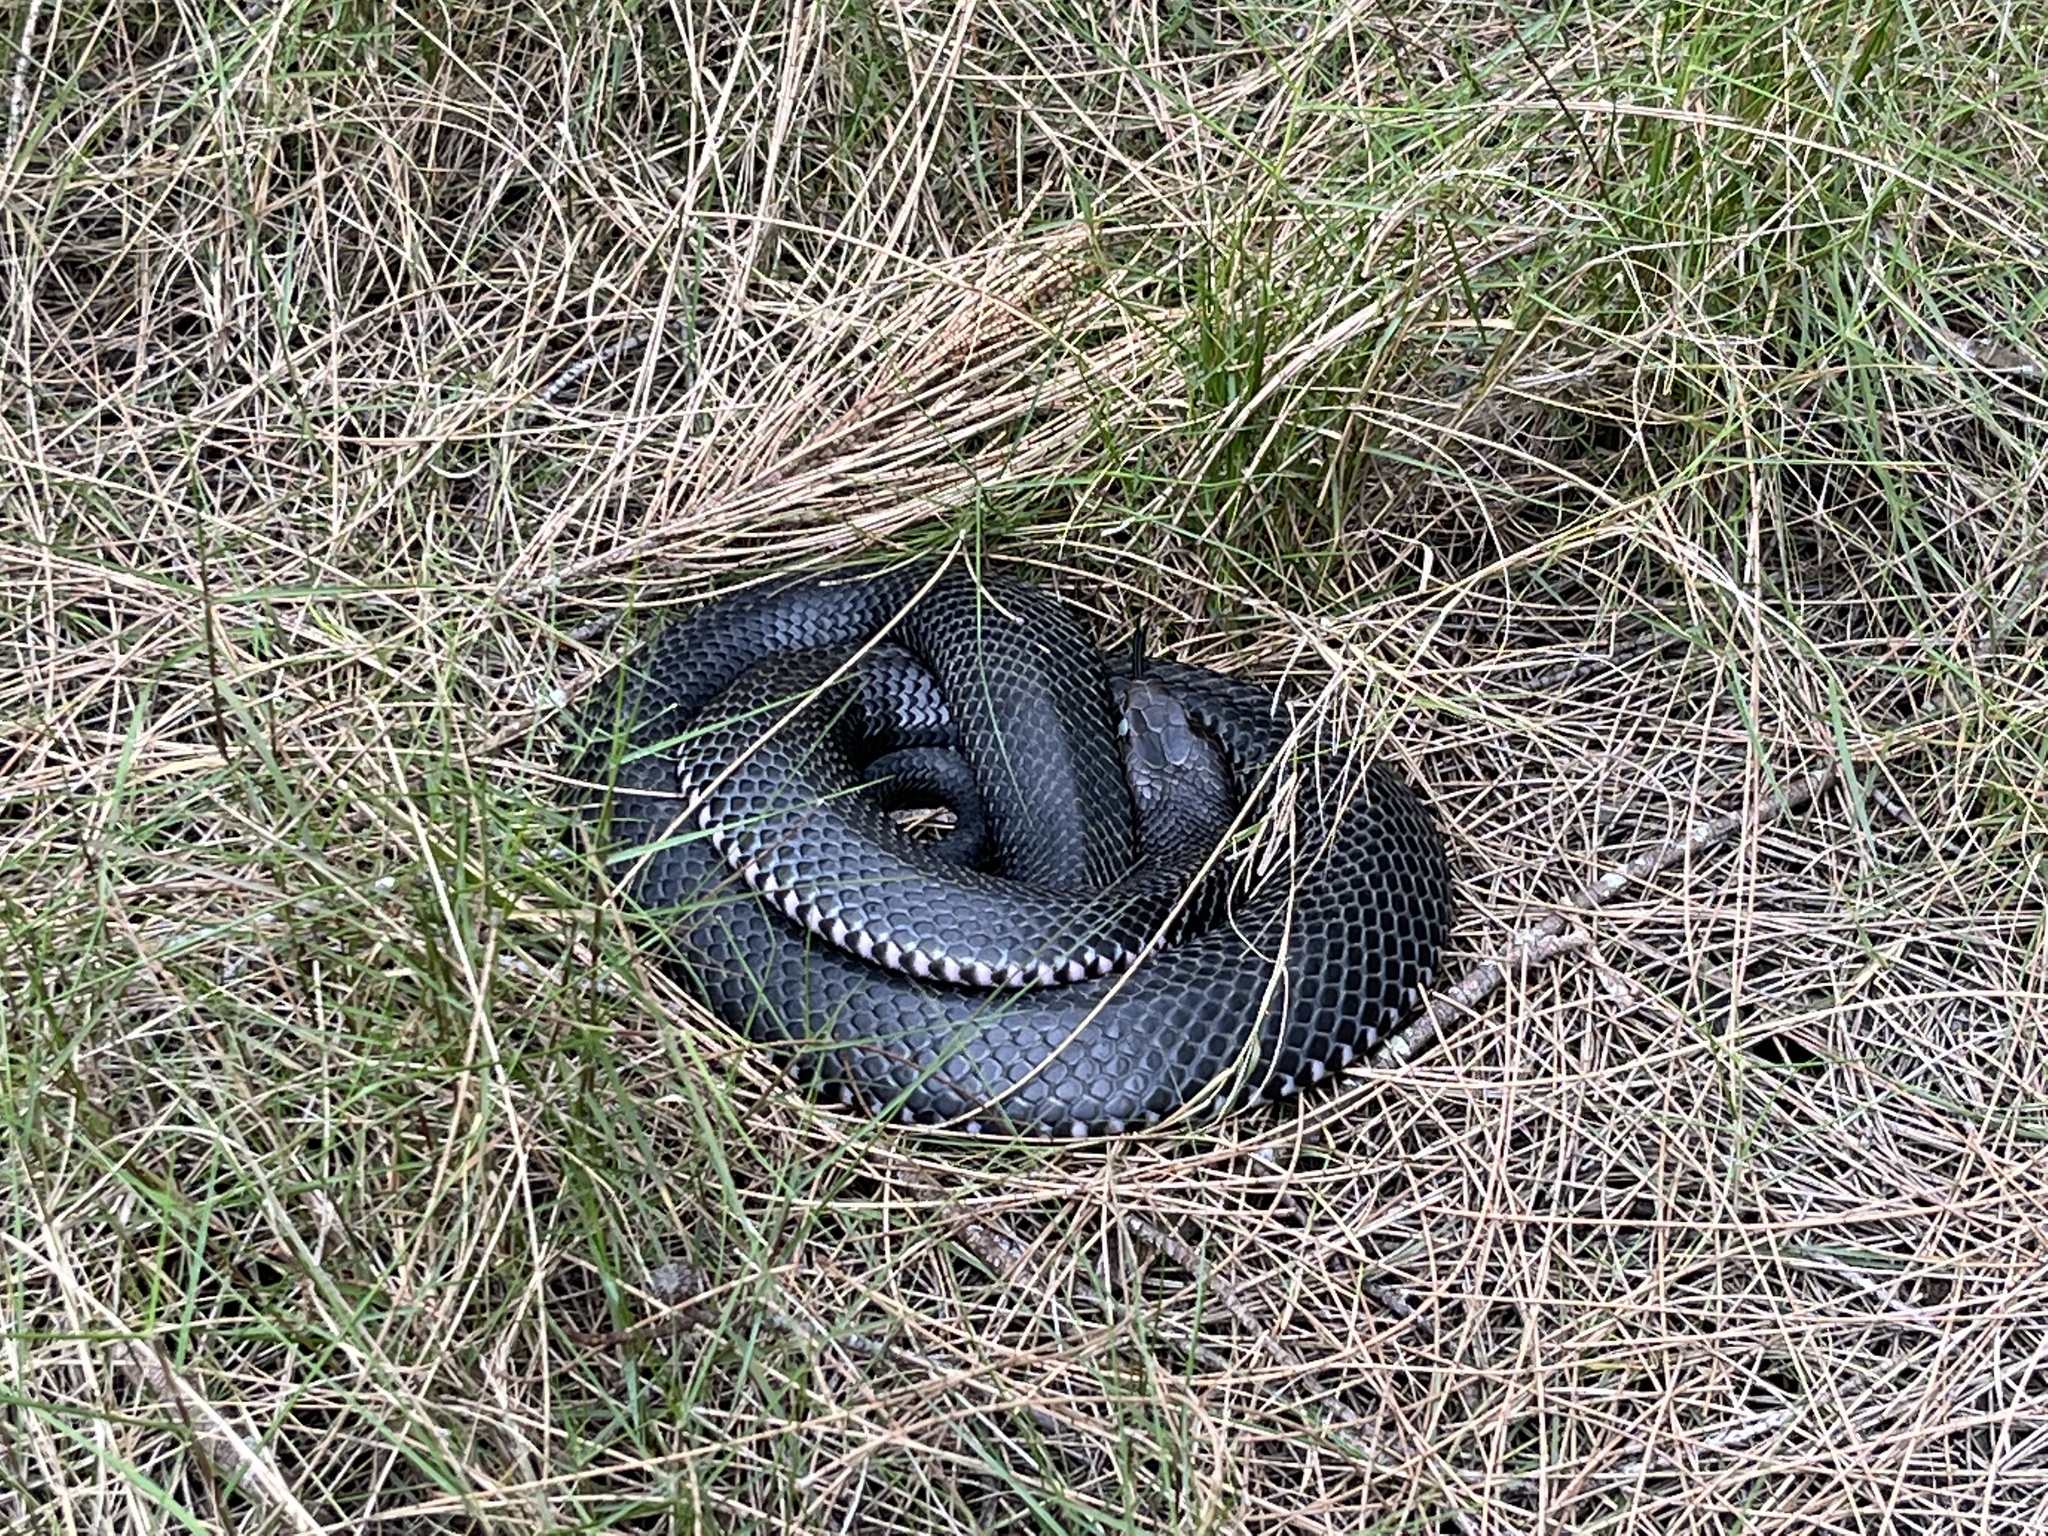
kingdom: Animalia
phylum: Chordata
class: Squamata
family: Elapidae
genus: Pseudechis
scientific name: Pseudechis porphyriacus
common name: Australian black snake
